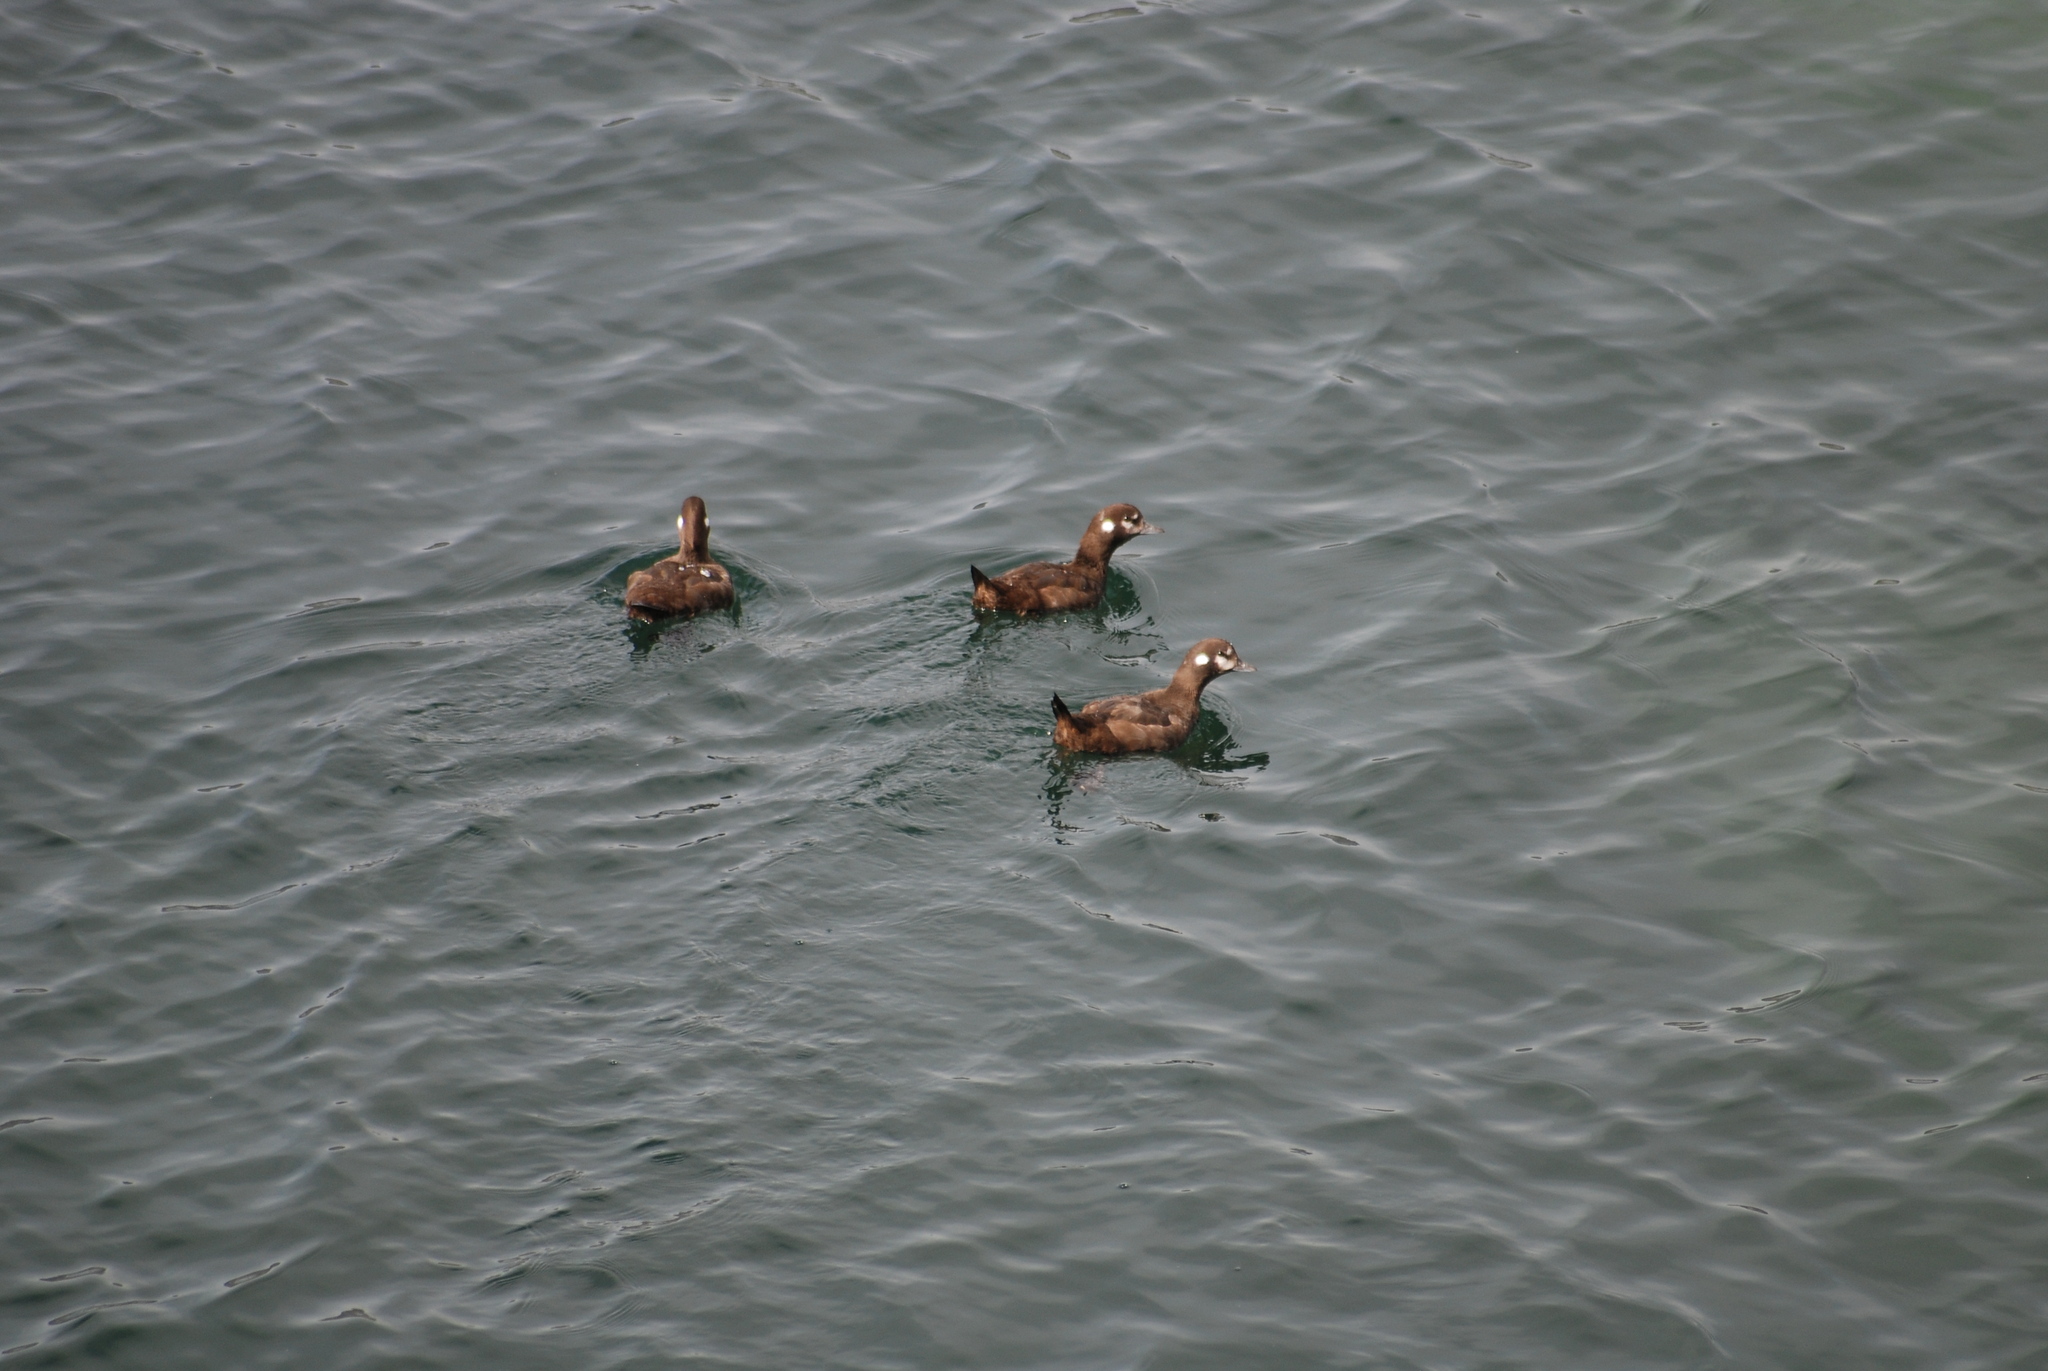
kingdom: Animalia
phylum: Chordata
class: Aves
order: Anseriformes
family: Anatidae
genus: Histrionicus
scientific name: Histrionicus histrionicus
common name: Harlequin duck
